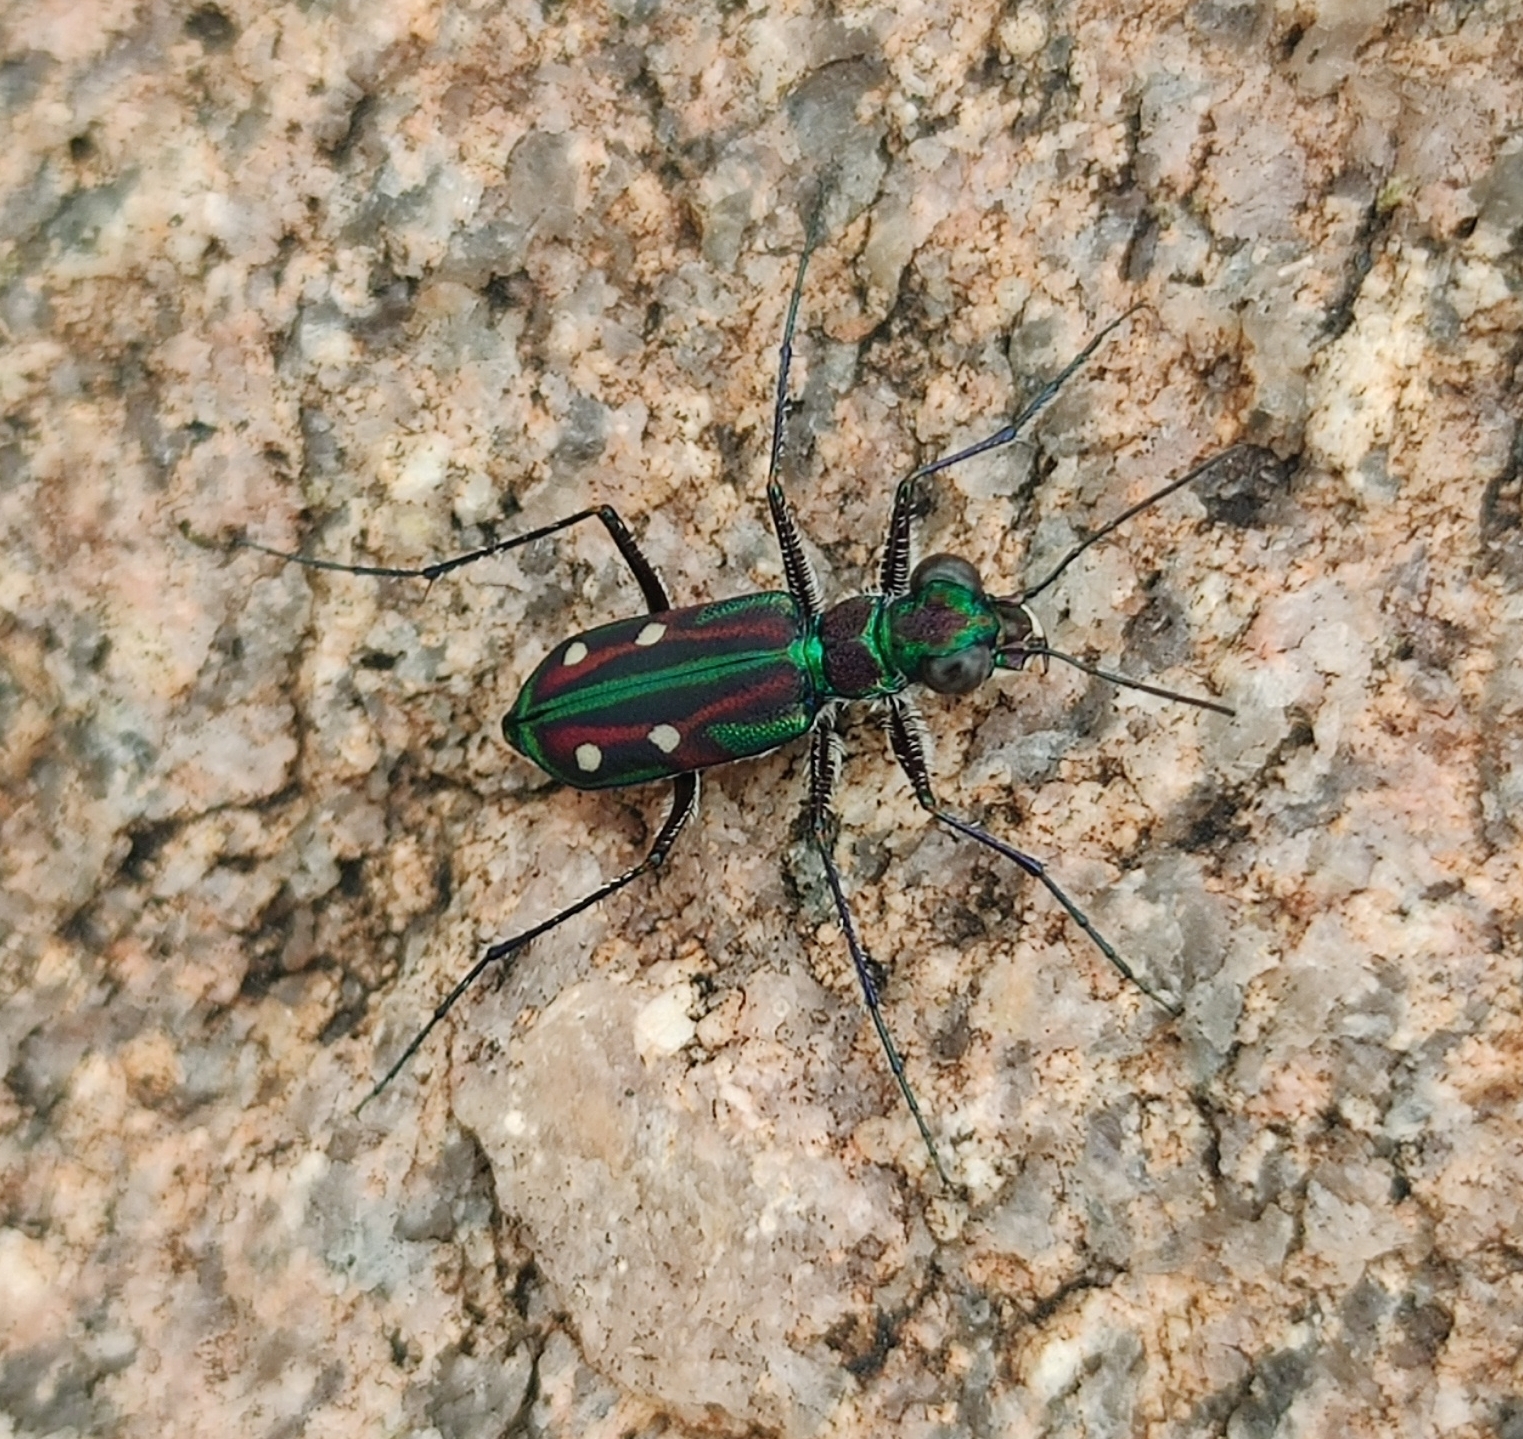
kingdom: Animalia
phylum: Arthropoda
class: Insecta
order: Coleoptera
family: Carabidae
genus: Jansenia
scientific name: Jansenia rugosiceps
